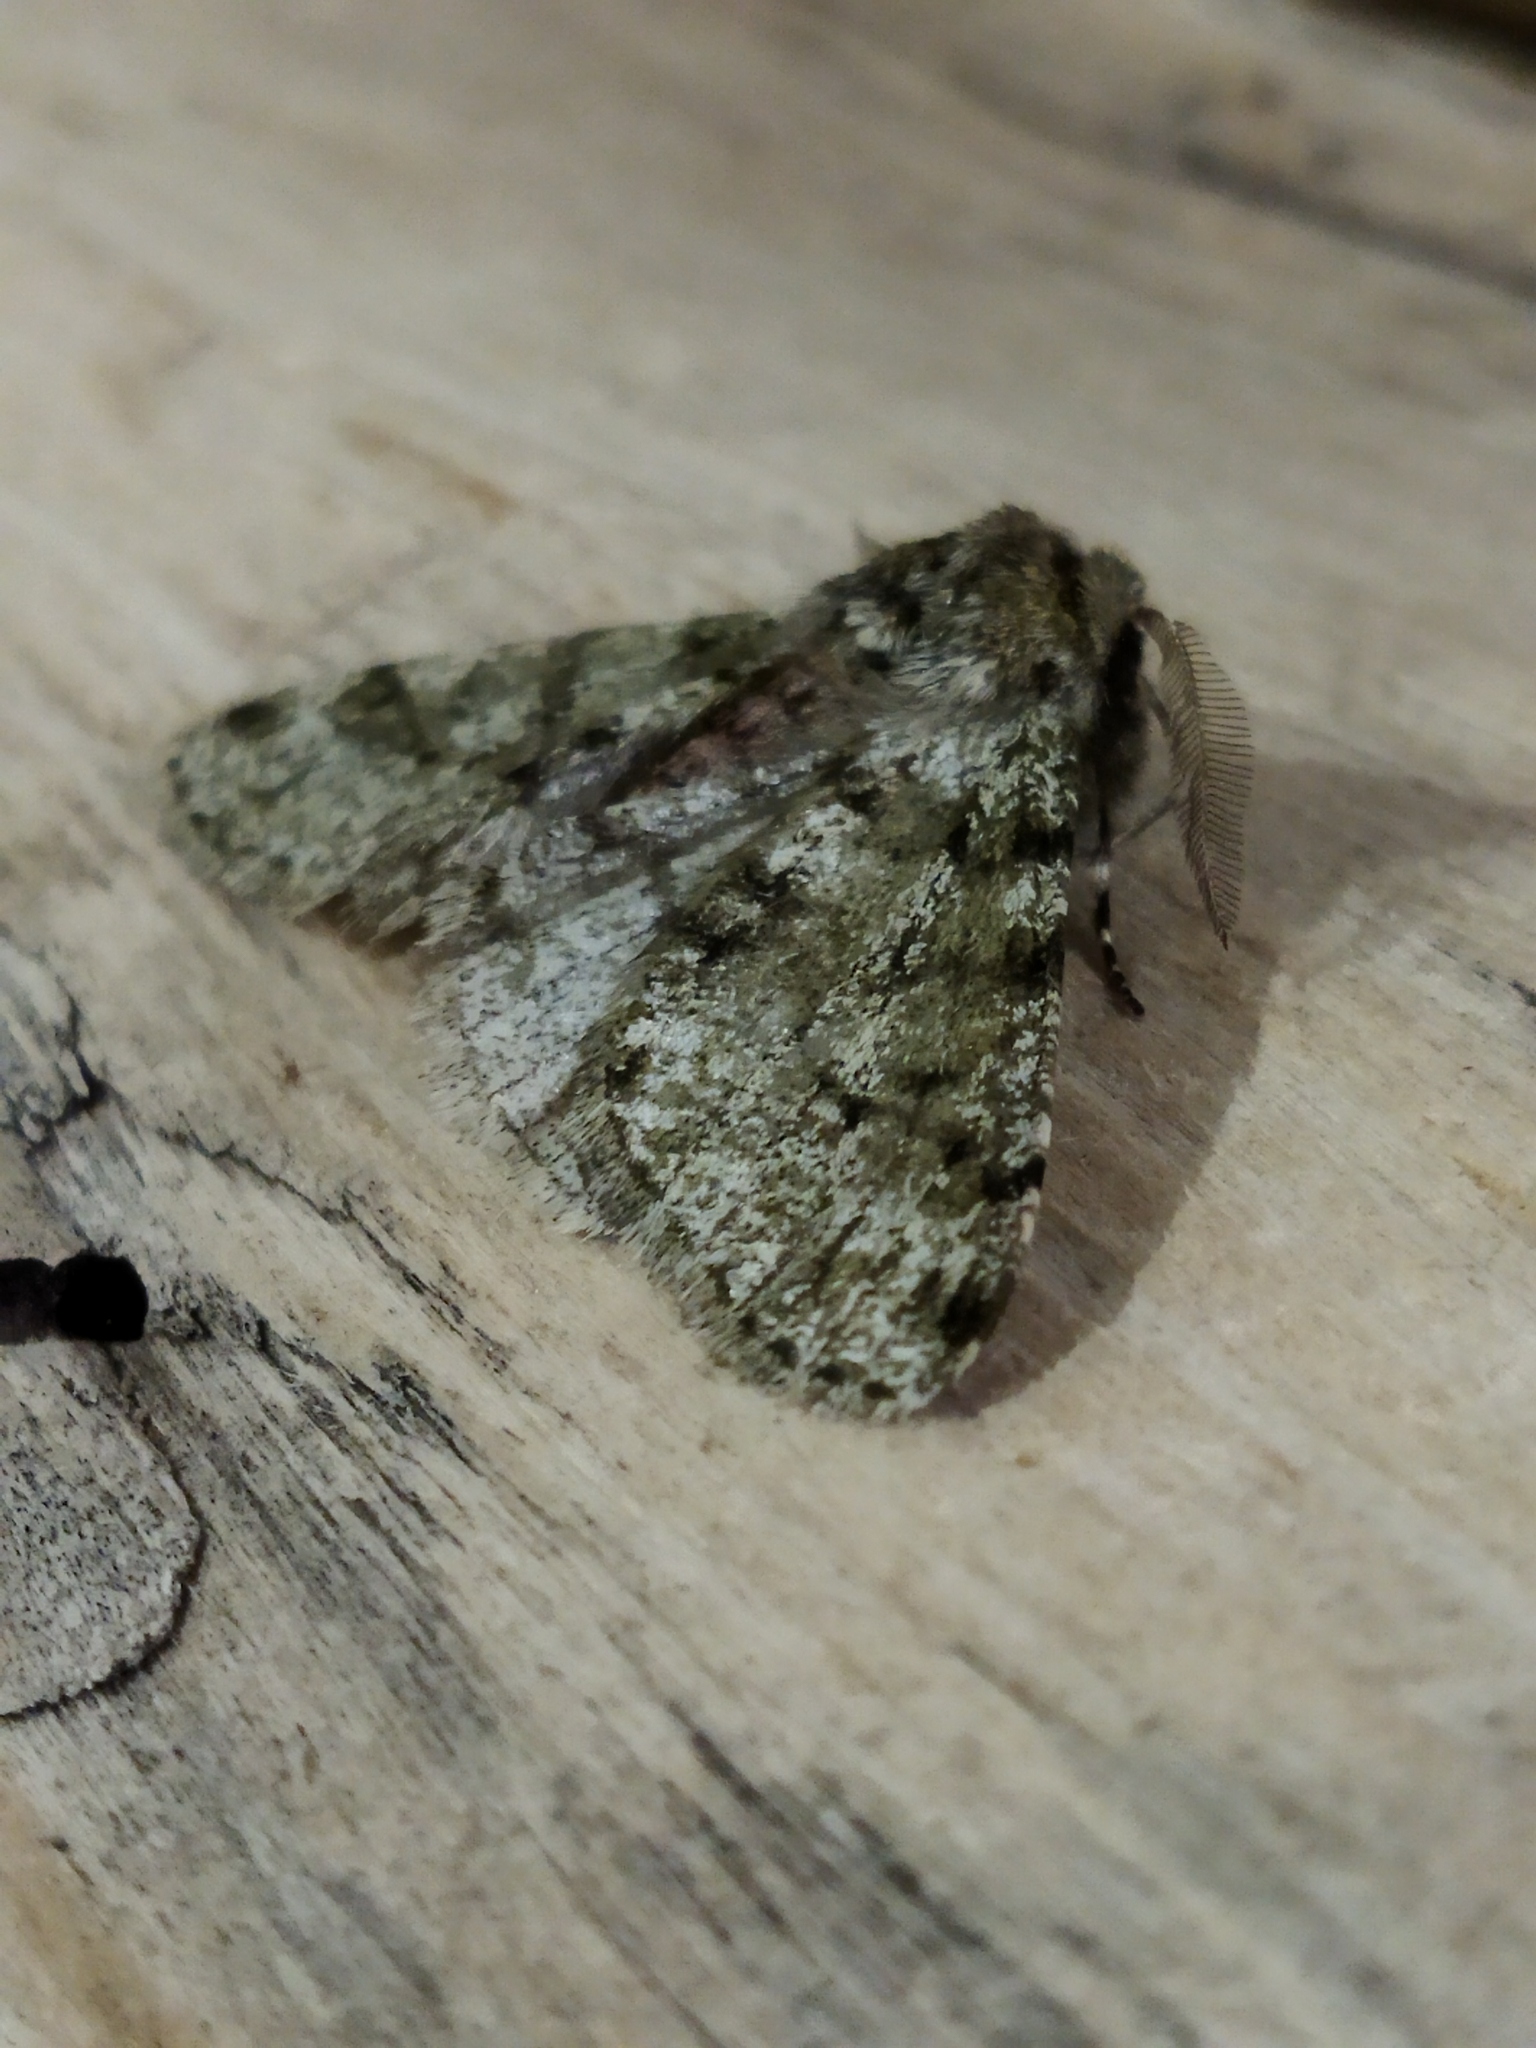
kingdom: Animalia
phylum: Arthropoda
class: Insecta
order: Lepidoptera
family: Geometridae
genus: Phigalia
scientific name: Phigalia pilosaria
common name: Pale brindled beauty
